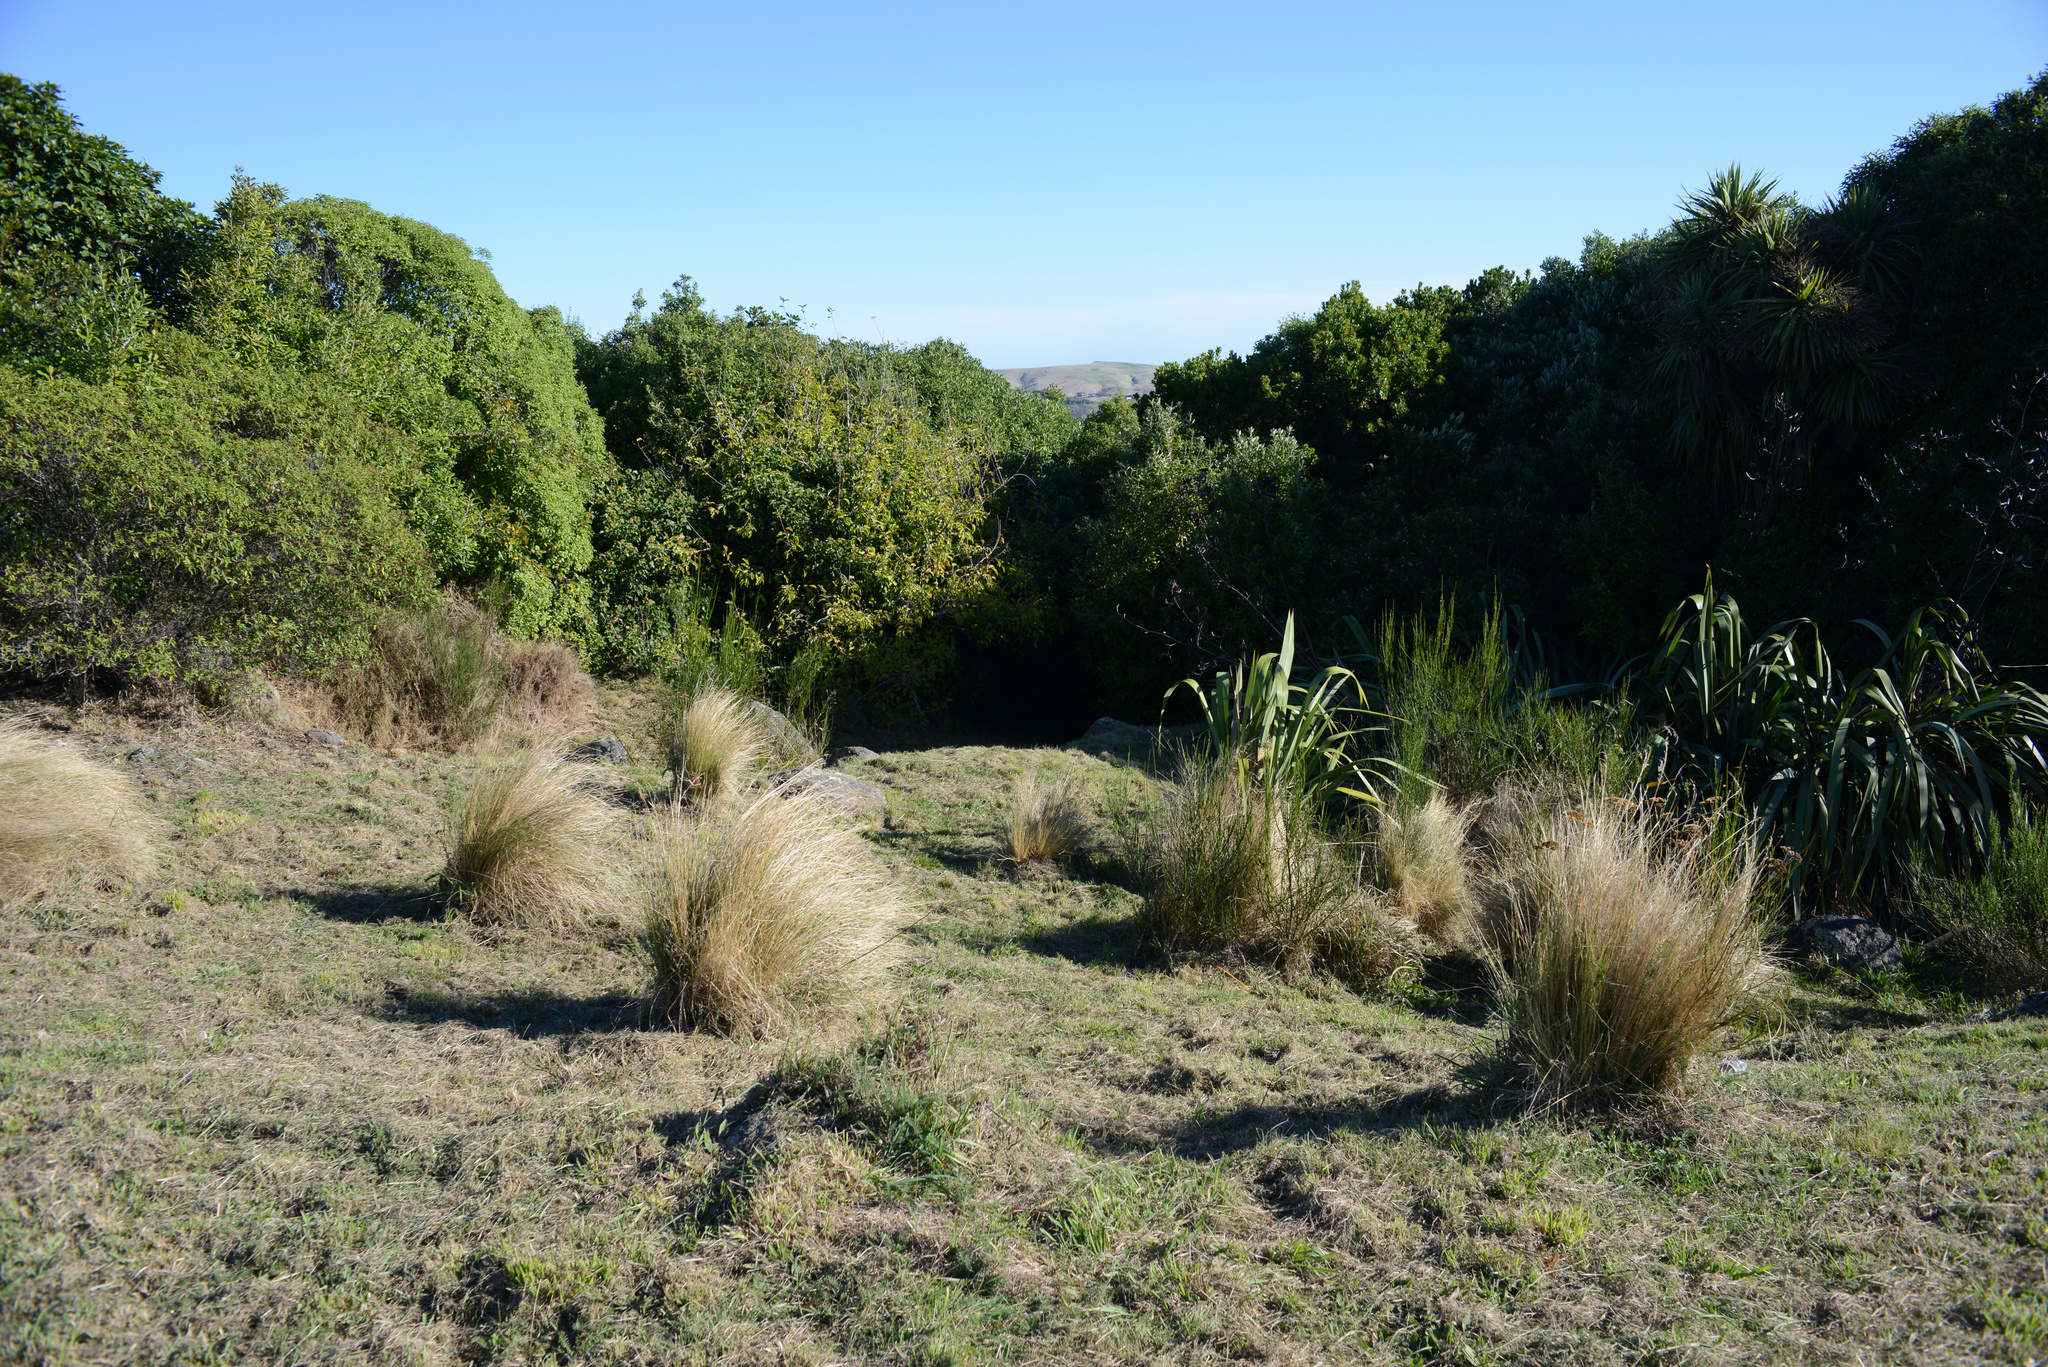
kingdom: Plantae
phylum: Tracheophyta
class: Magnoliopsida
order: Fabales
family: Fabaceae
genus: Cytisus
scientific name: Cytisus scoparius
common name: Scotch broom
